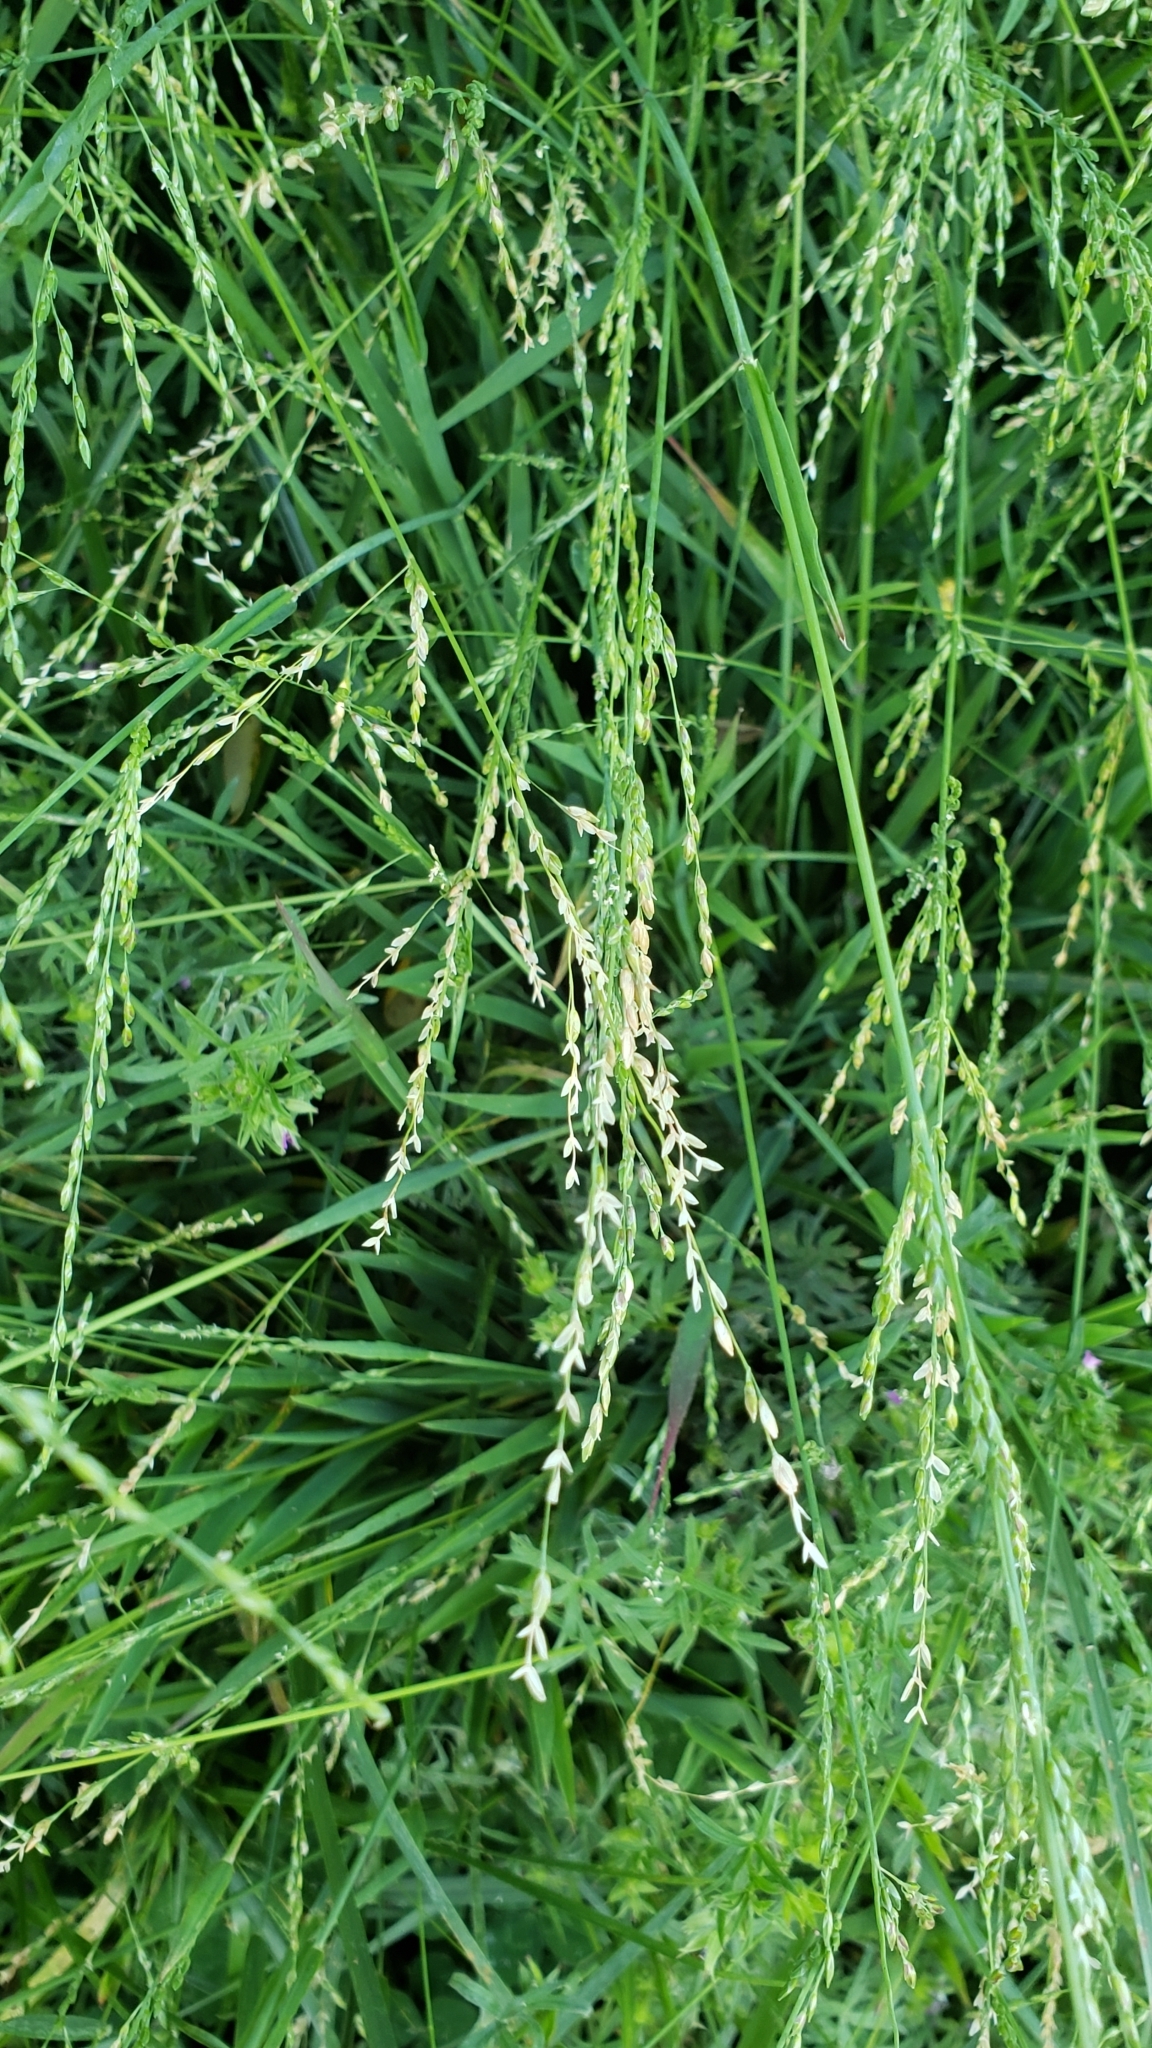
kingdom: Plantae
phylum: Tracheophyta
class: Liliopsida
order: Poales
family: Poaceae
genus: Ehrharta
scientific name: Ehrharta erecta
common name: Panic veldtgrass
